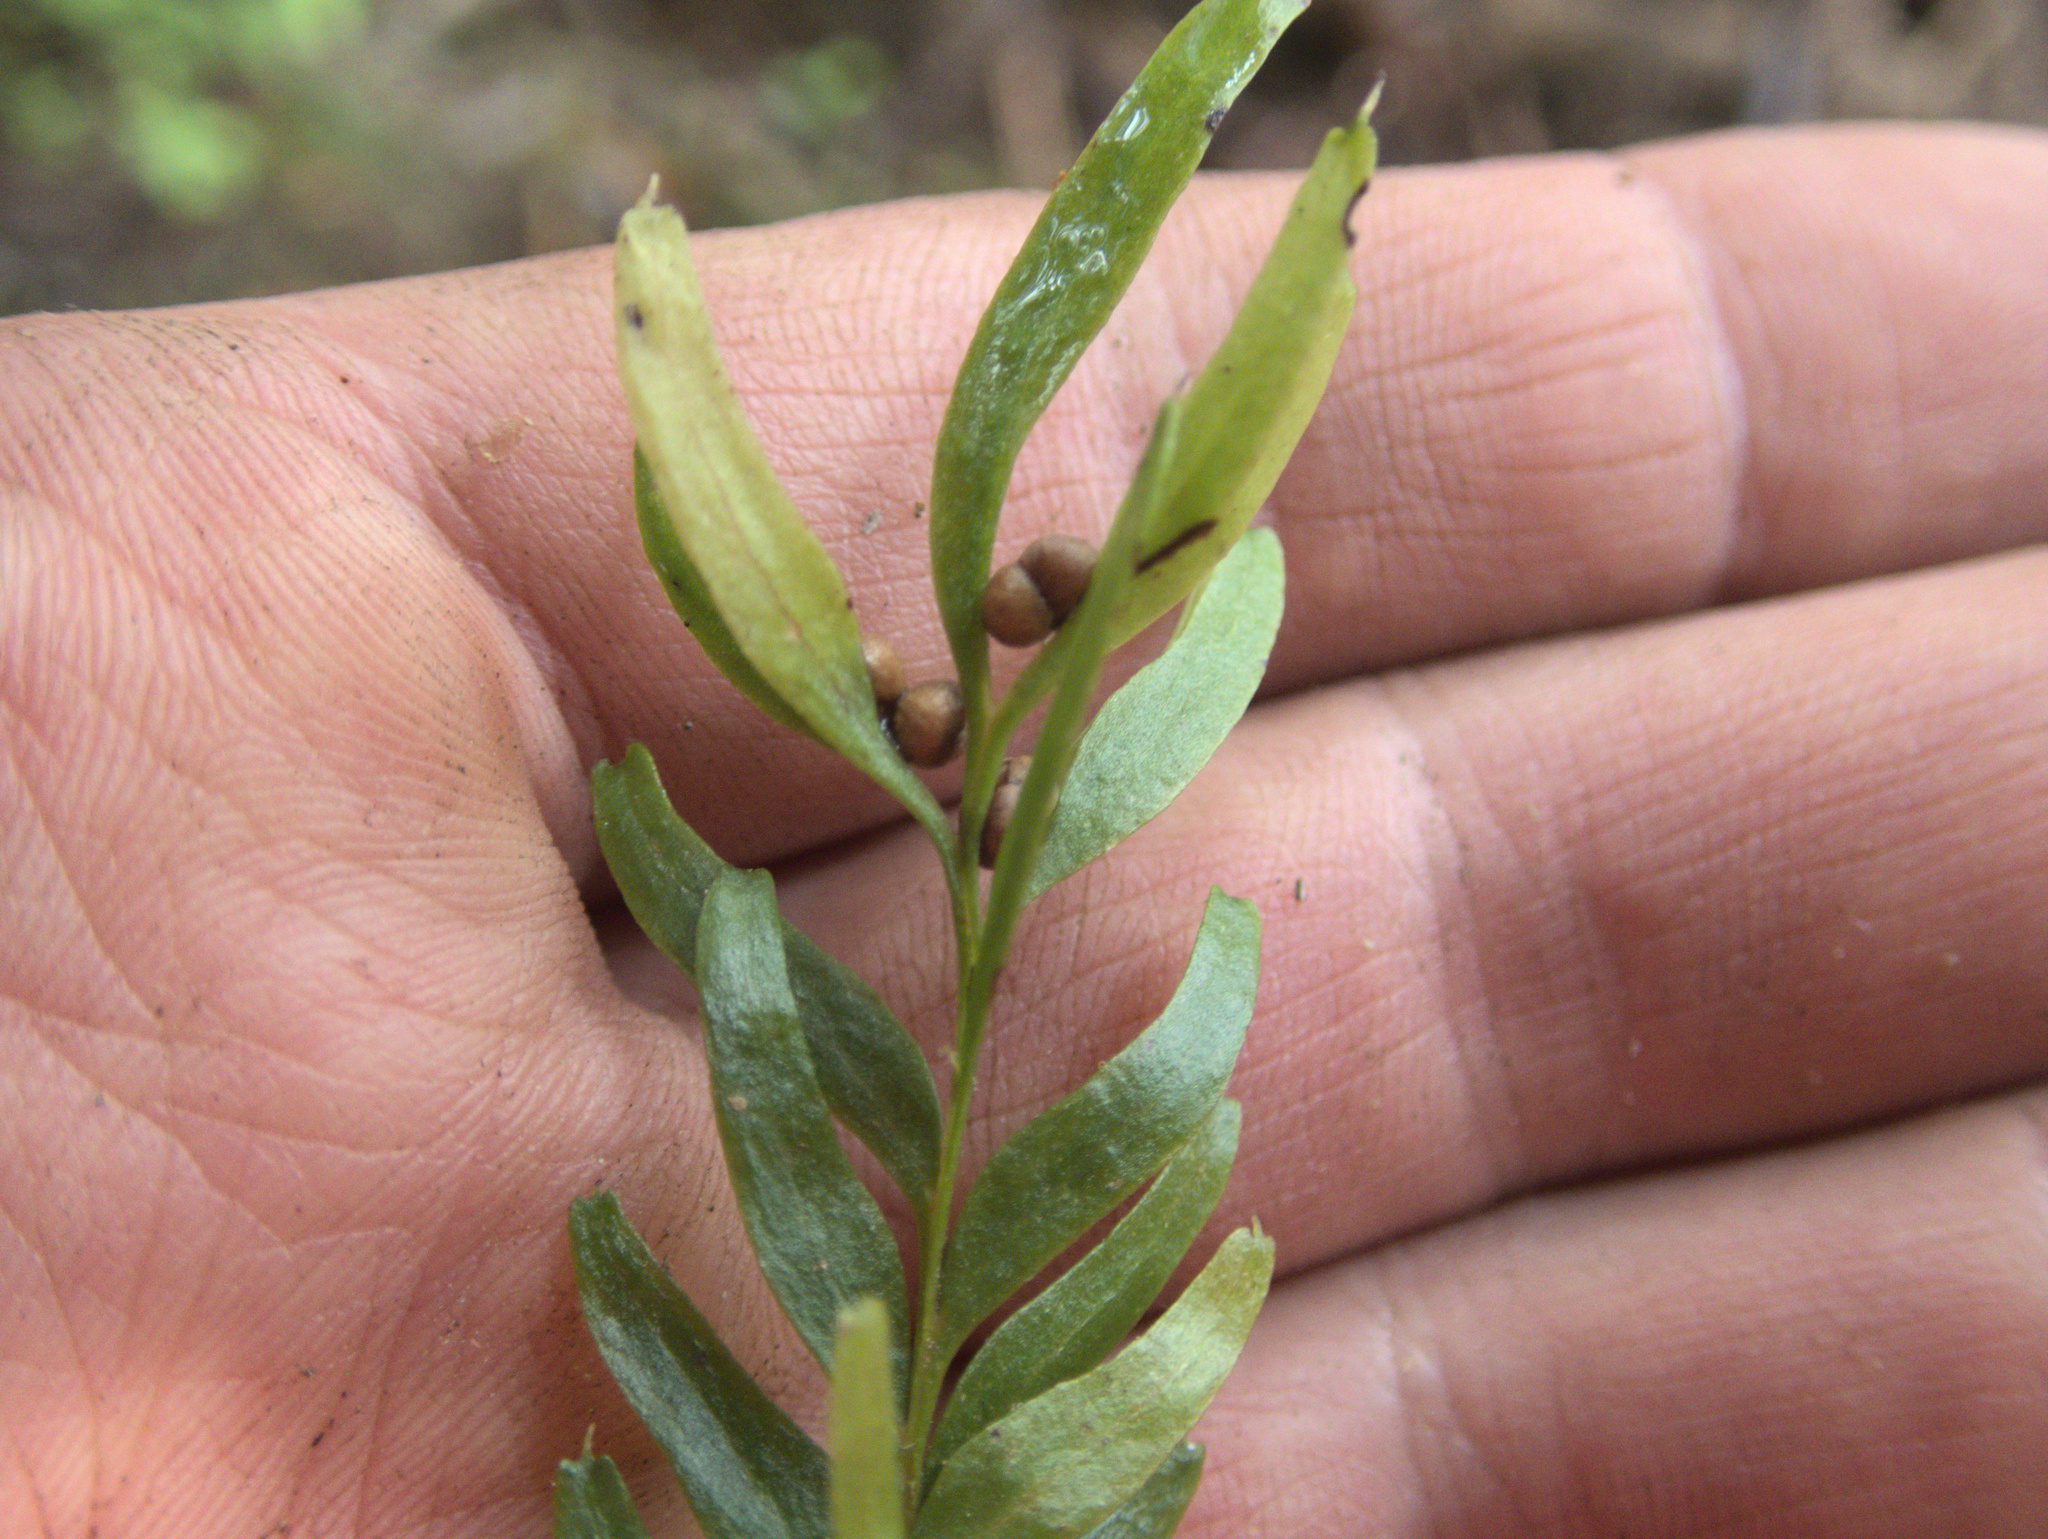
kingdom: Plantae
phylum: Tracheophyta
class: Polypodiopsida
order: Psilotales
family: Psilotaceae
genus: Tmesipteris
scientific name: Tmesipteris sigmatifolia
